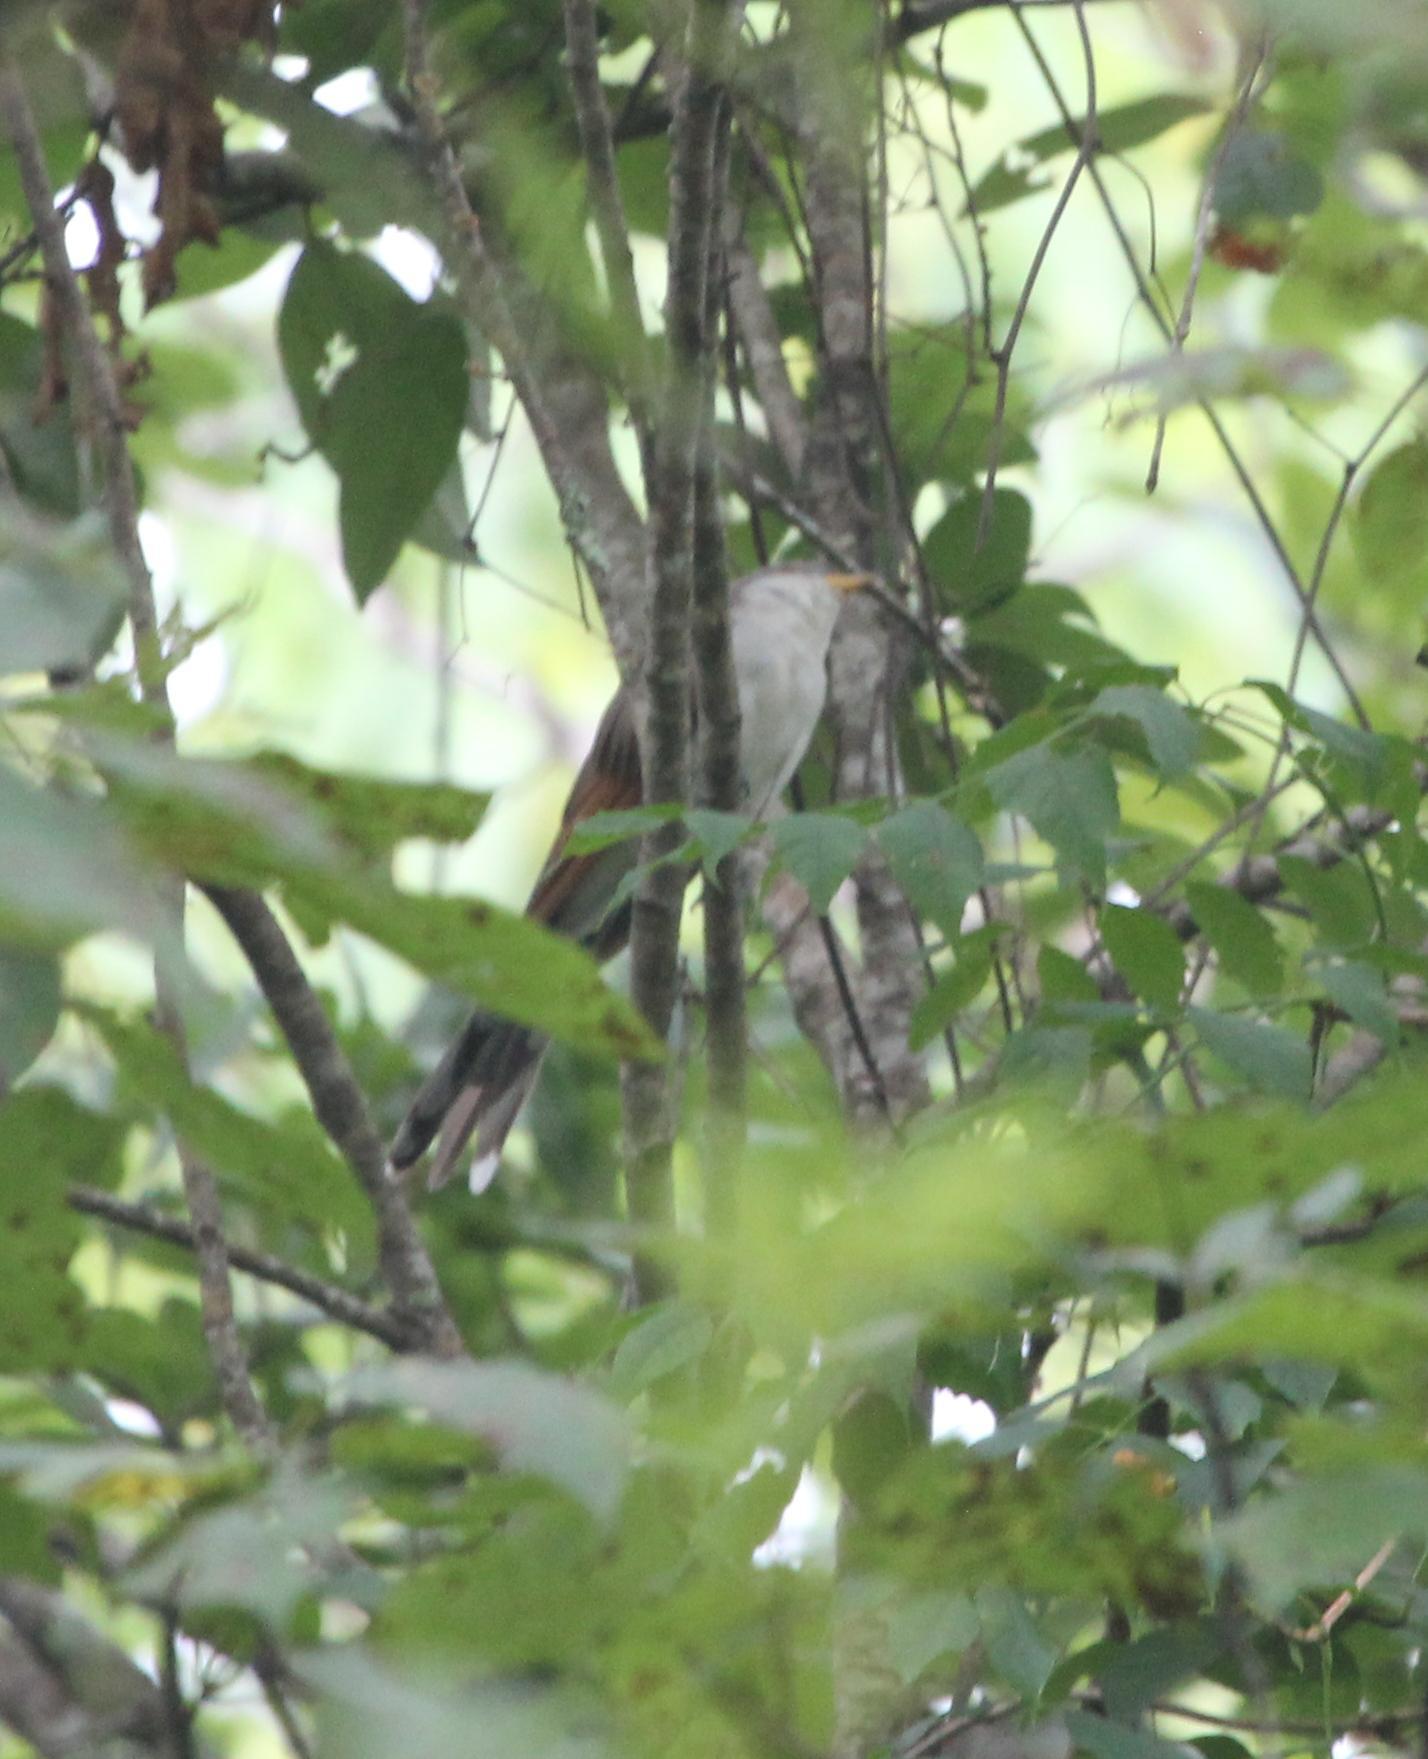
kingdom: Animalia
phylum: Chordata
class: Aves
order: Cuculiformes
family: Cuculidae
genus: Coccyzus
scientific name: Coccyzus americanus
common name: Yellow-billed cuckoo
